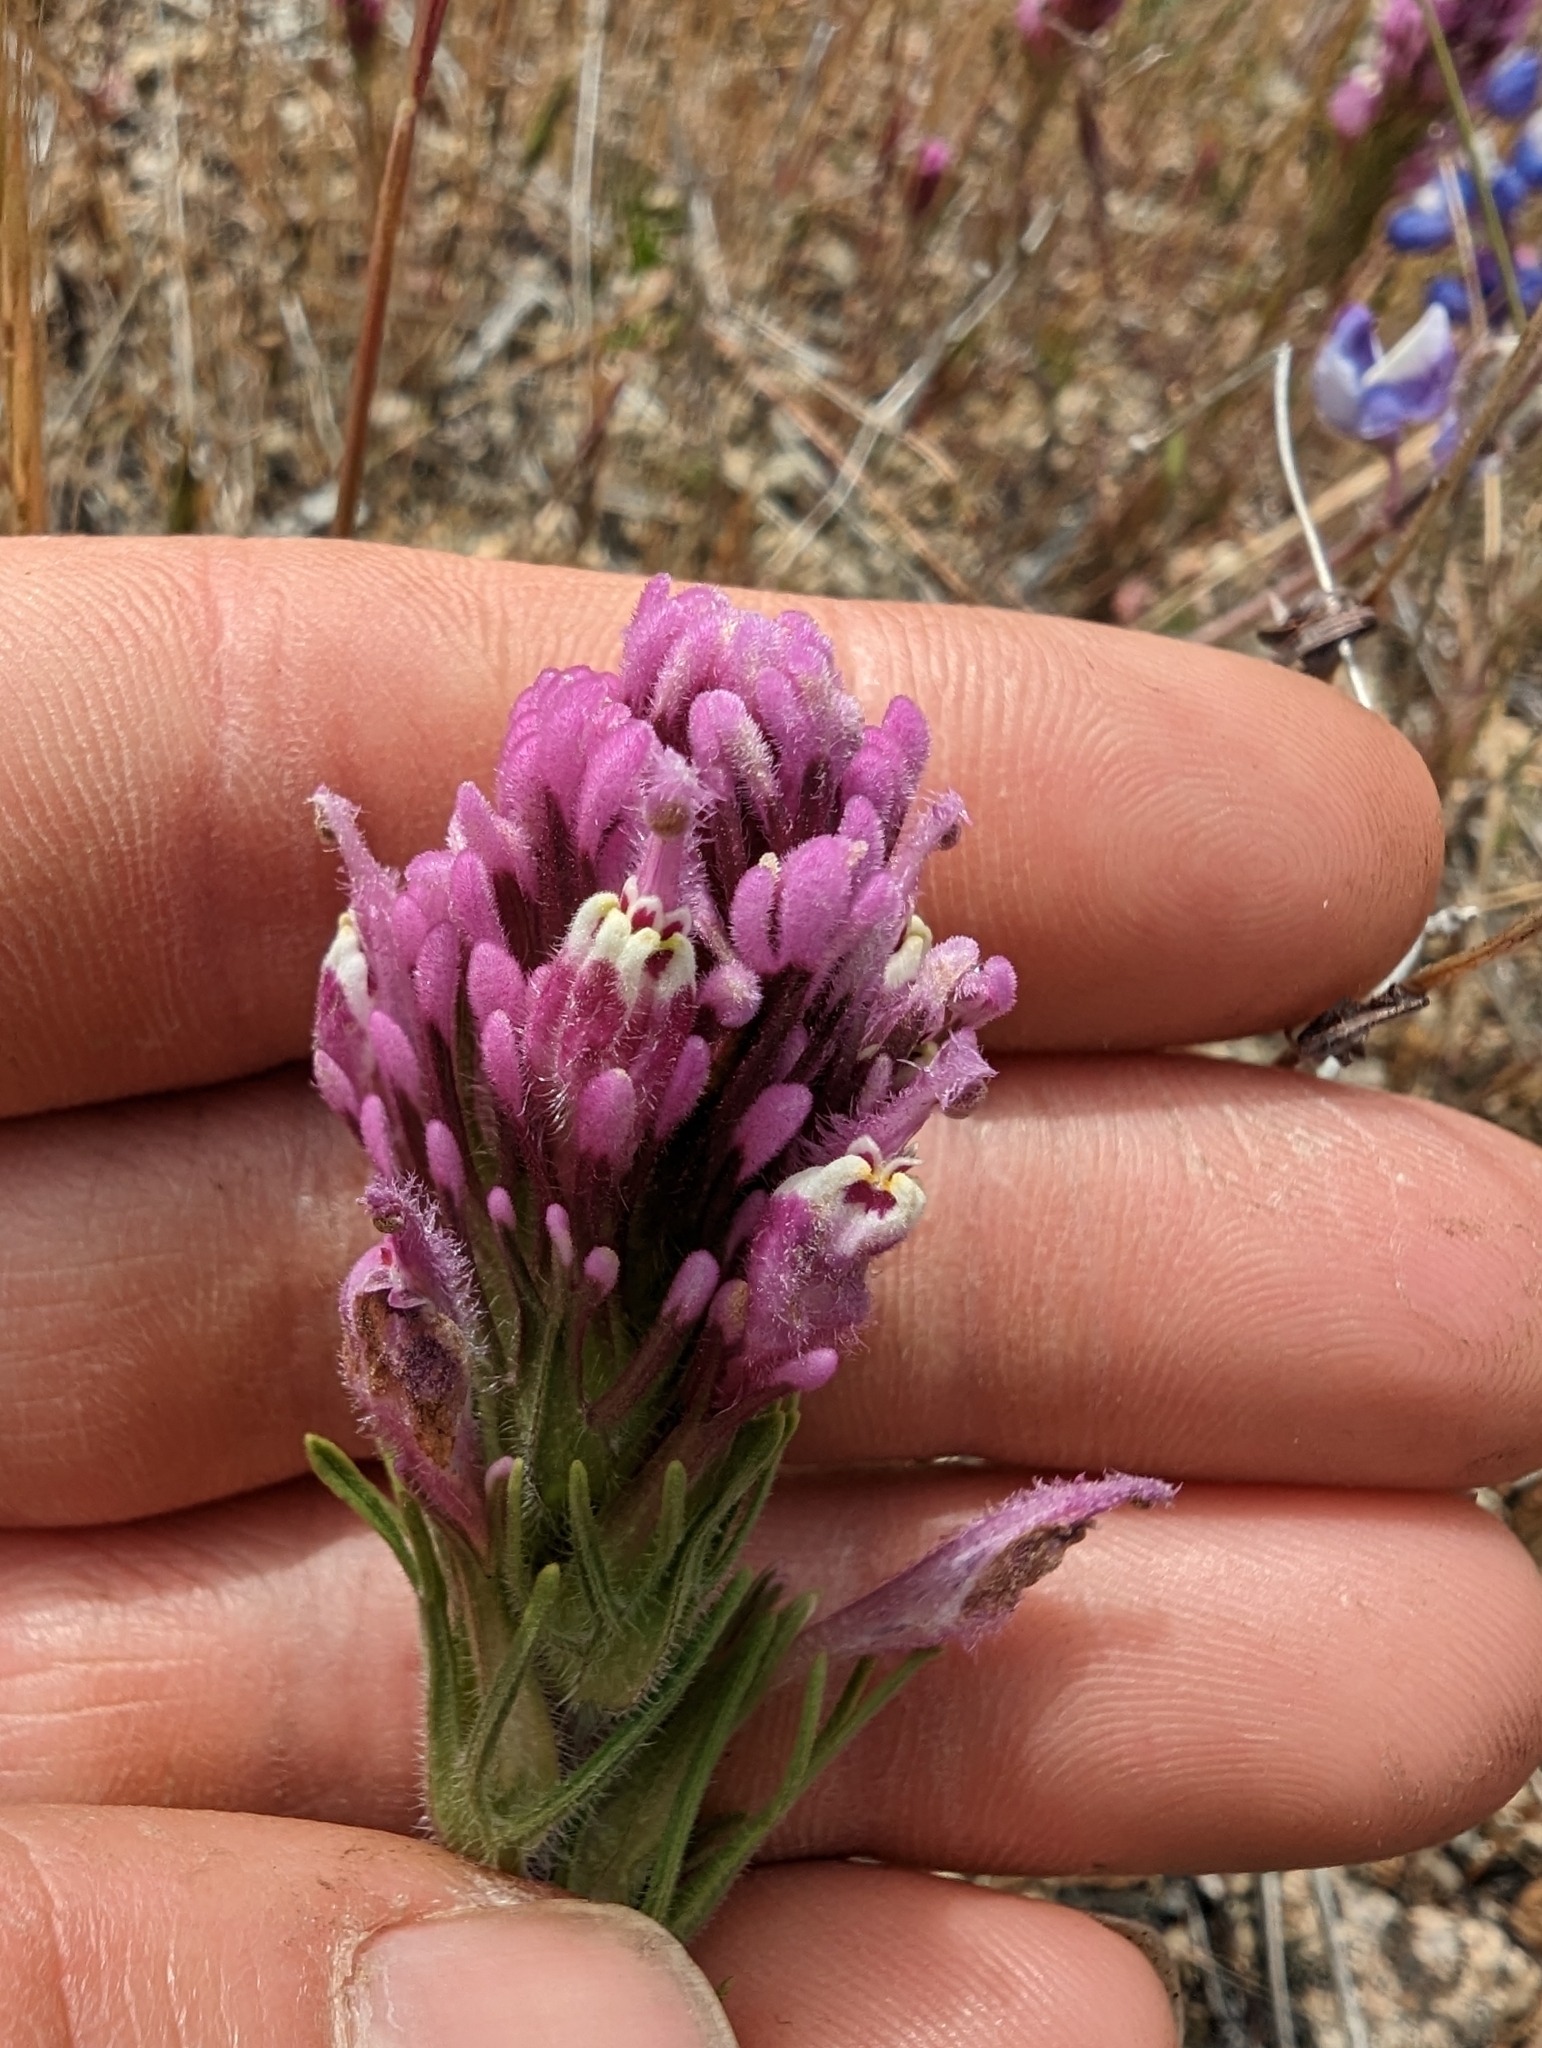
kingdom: Plantae
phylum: Tracheophyta
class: Magnoliopsida
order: Lamiales
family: Orobanchaceae
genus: Castilleja
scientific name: Castilleja exserta
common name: Purple owl-clover
